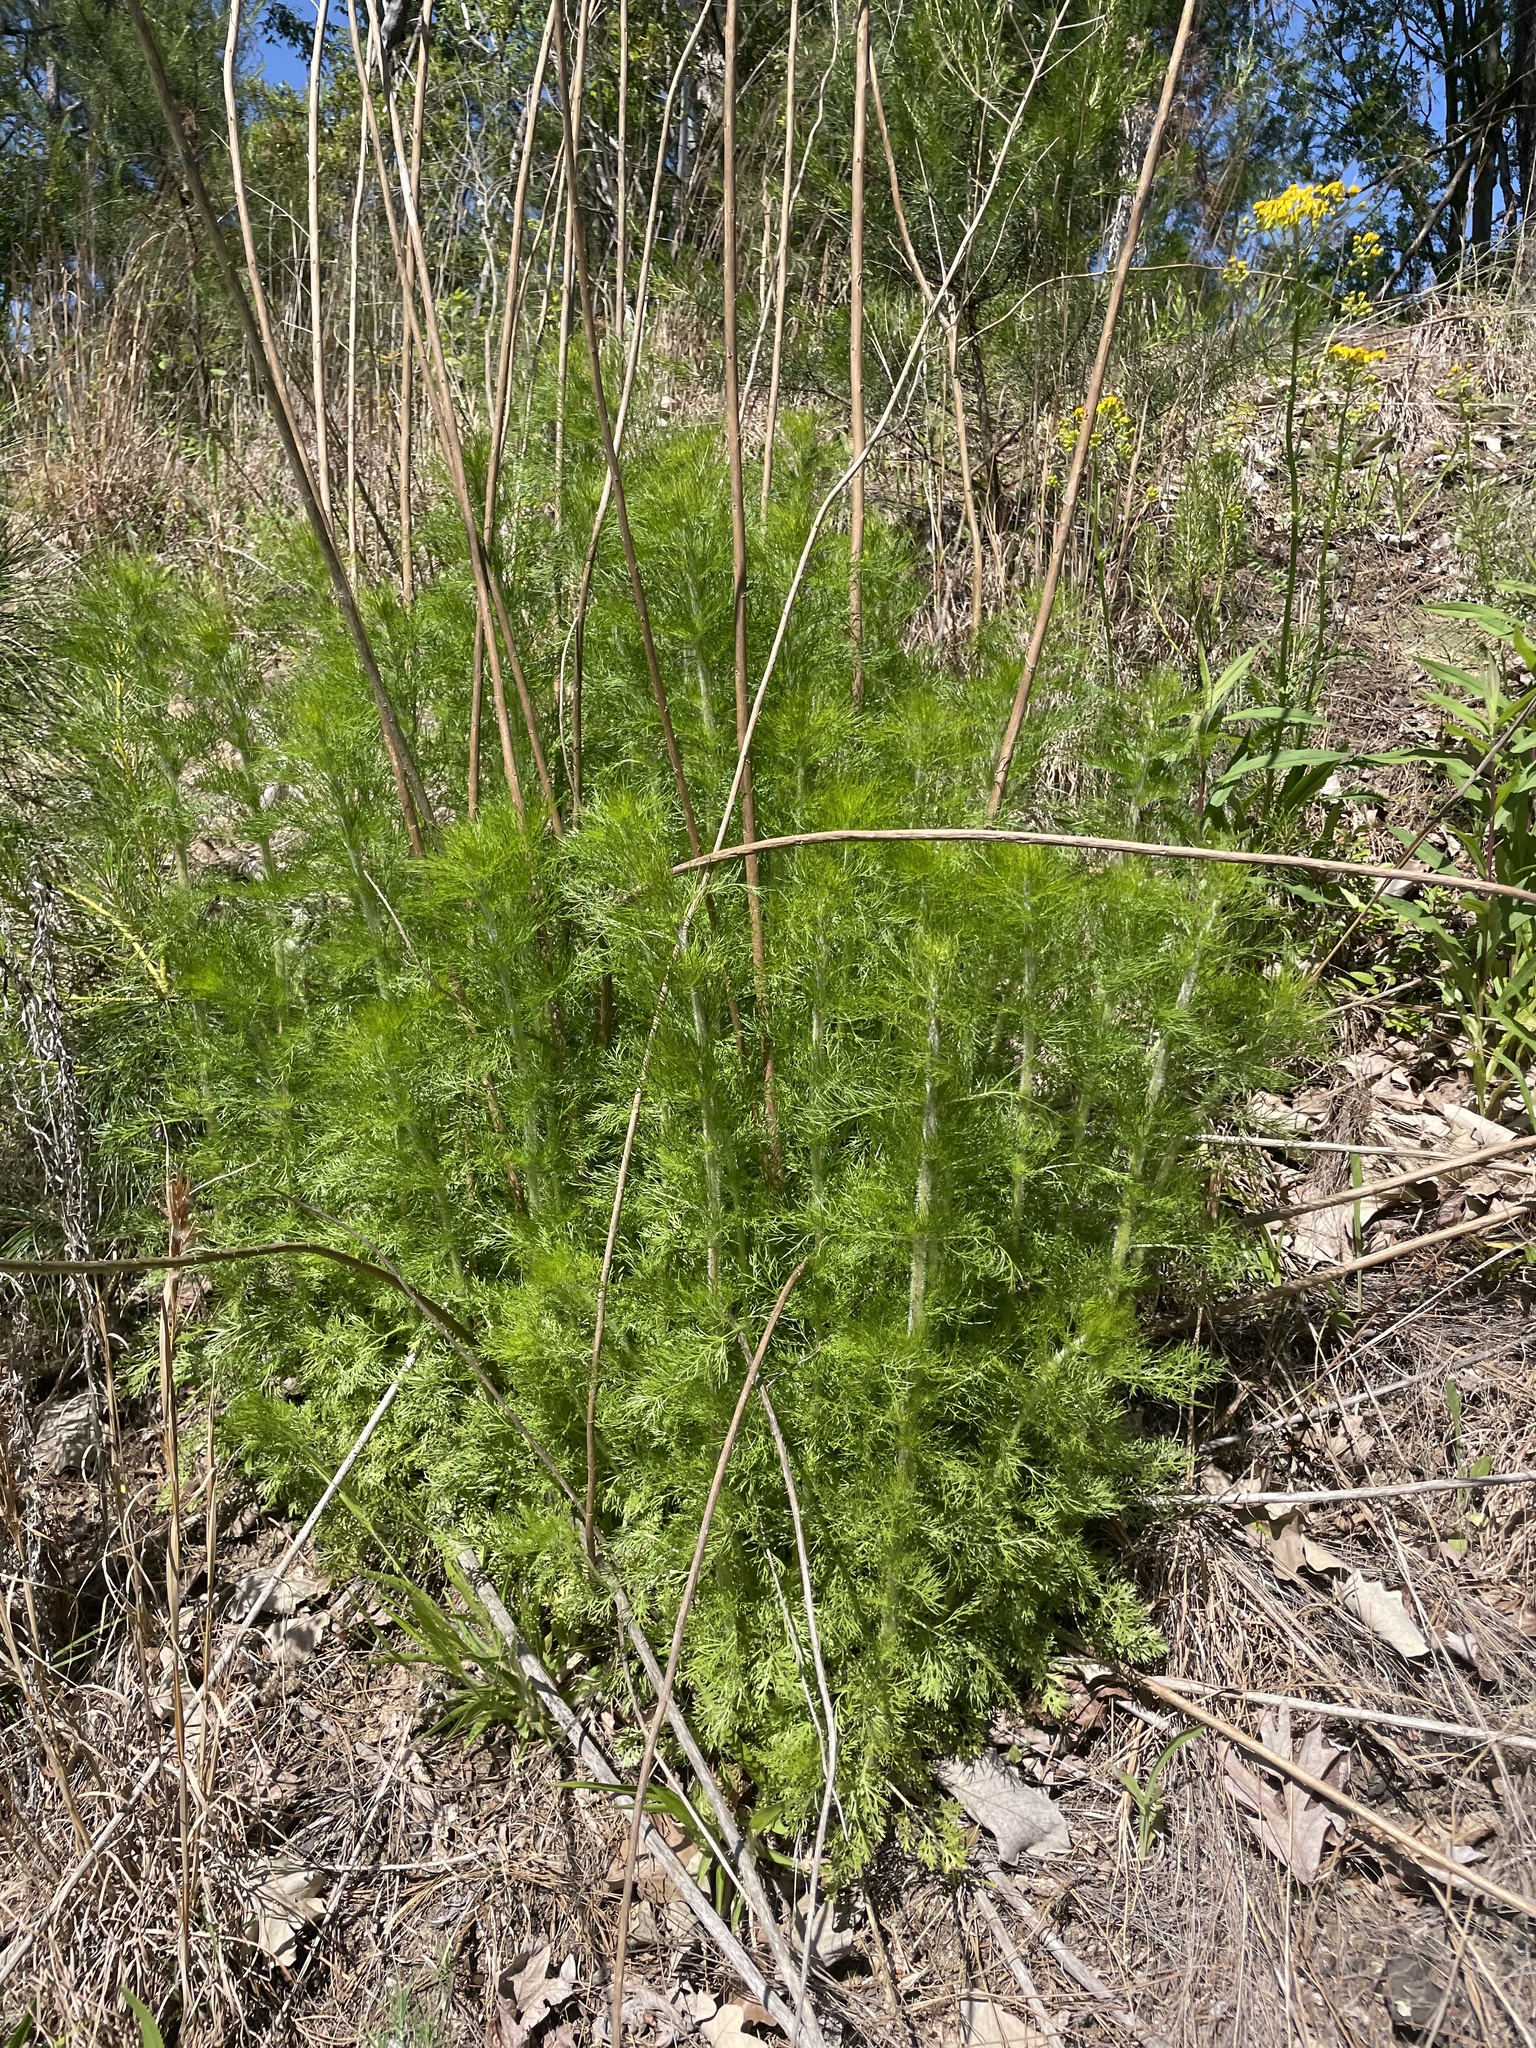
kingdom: Plantae
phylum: Tracheophyta
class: Magnoliopsida
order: Asterales
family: Asteraceae
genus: Eupatorium
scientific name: Eupatorium capillifolium
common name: Dog-fennel
